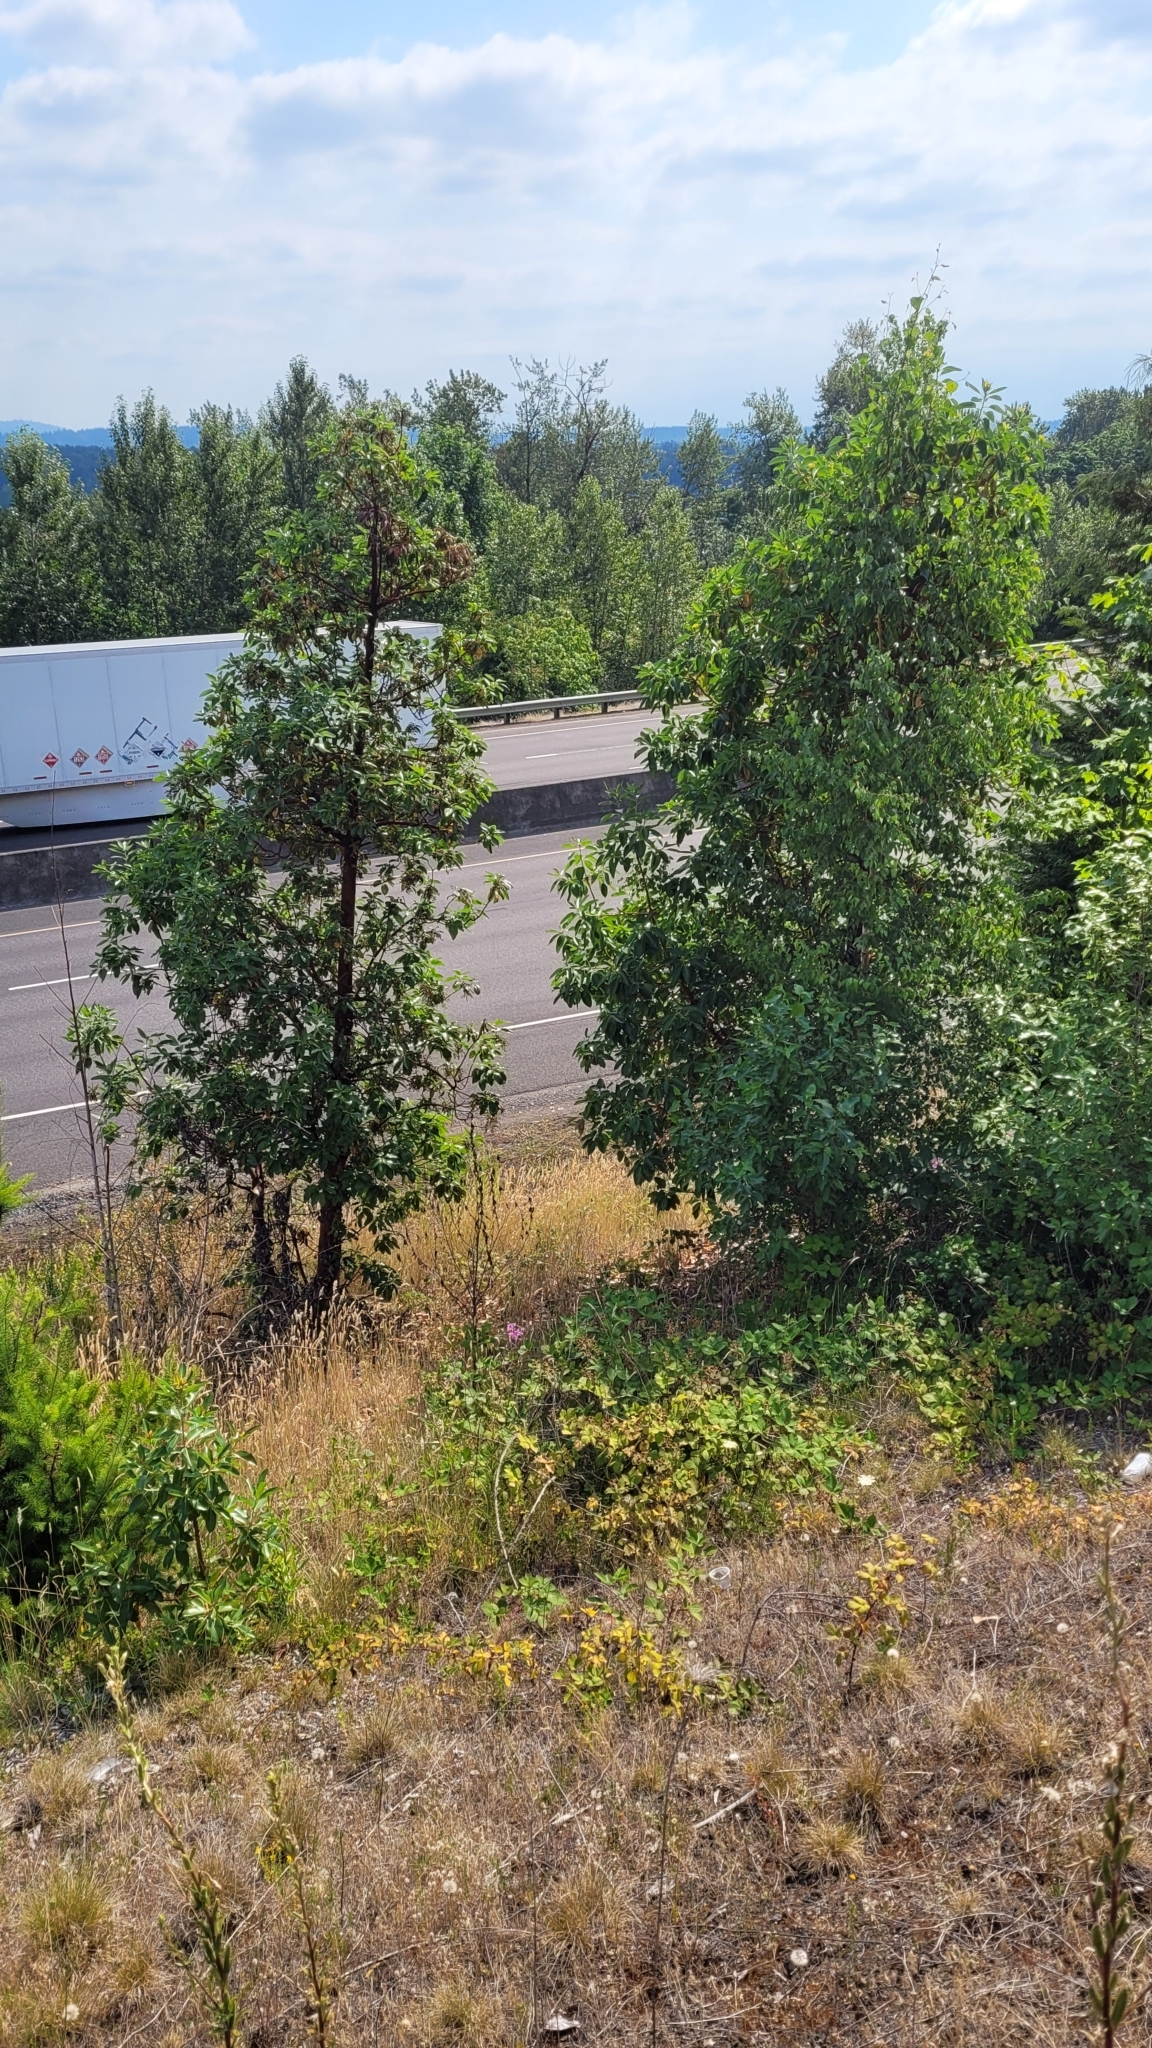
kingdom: Plantae
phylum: Tracheophyta
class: Magnoliopsida
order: Ericales
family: Ericaceae
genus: Arbutus
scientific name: Arbutus menziesii
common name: Pacific madrone
